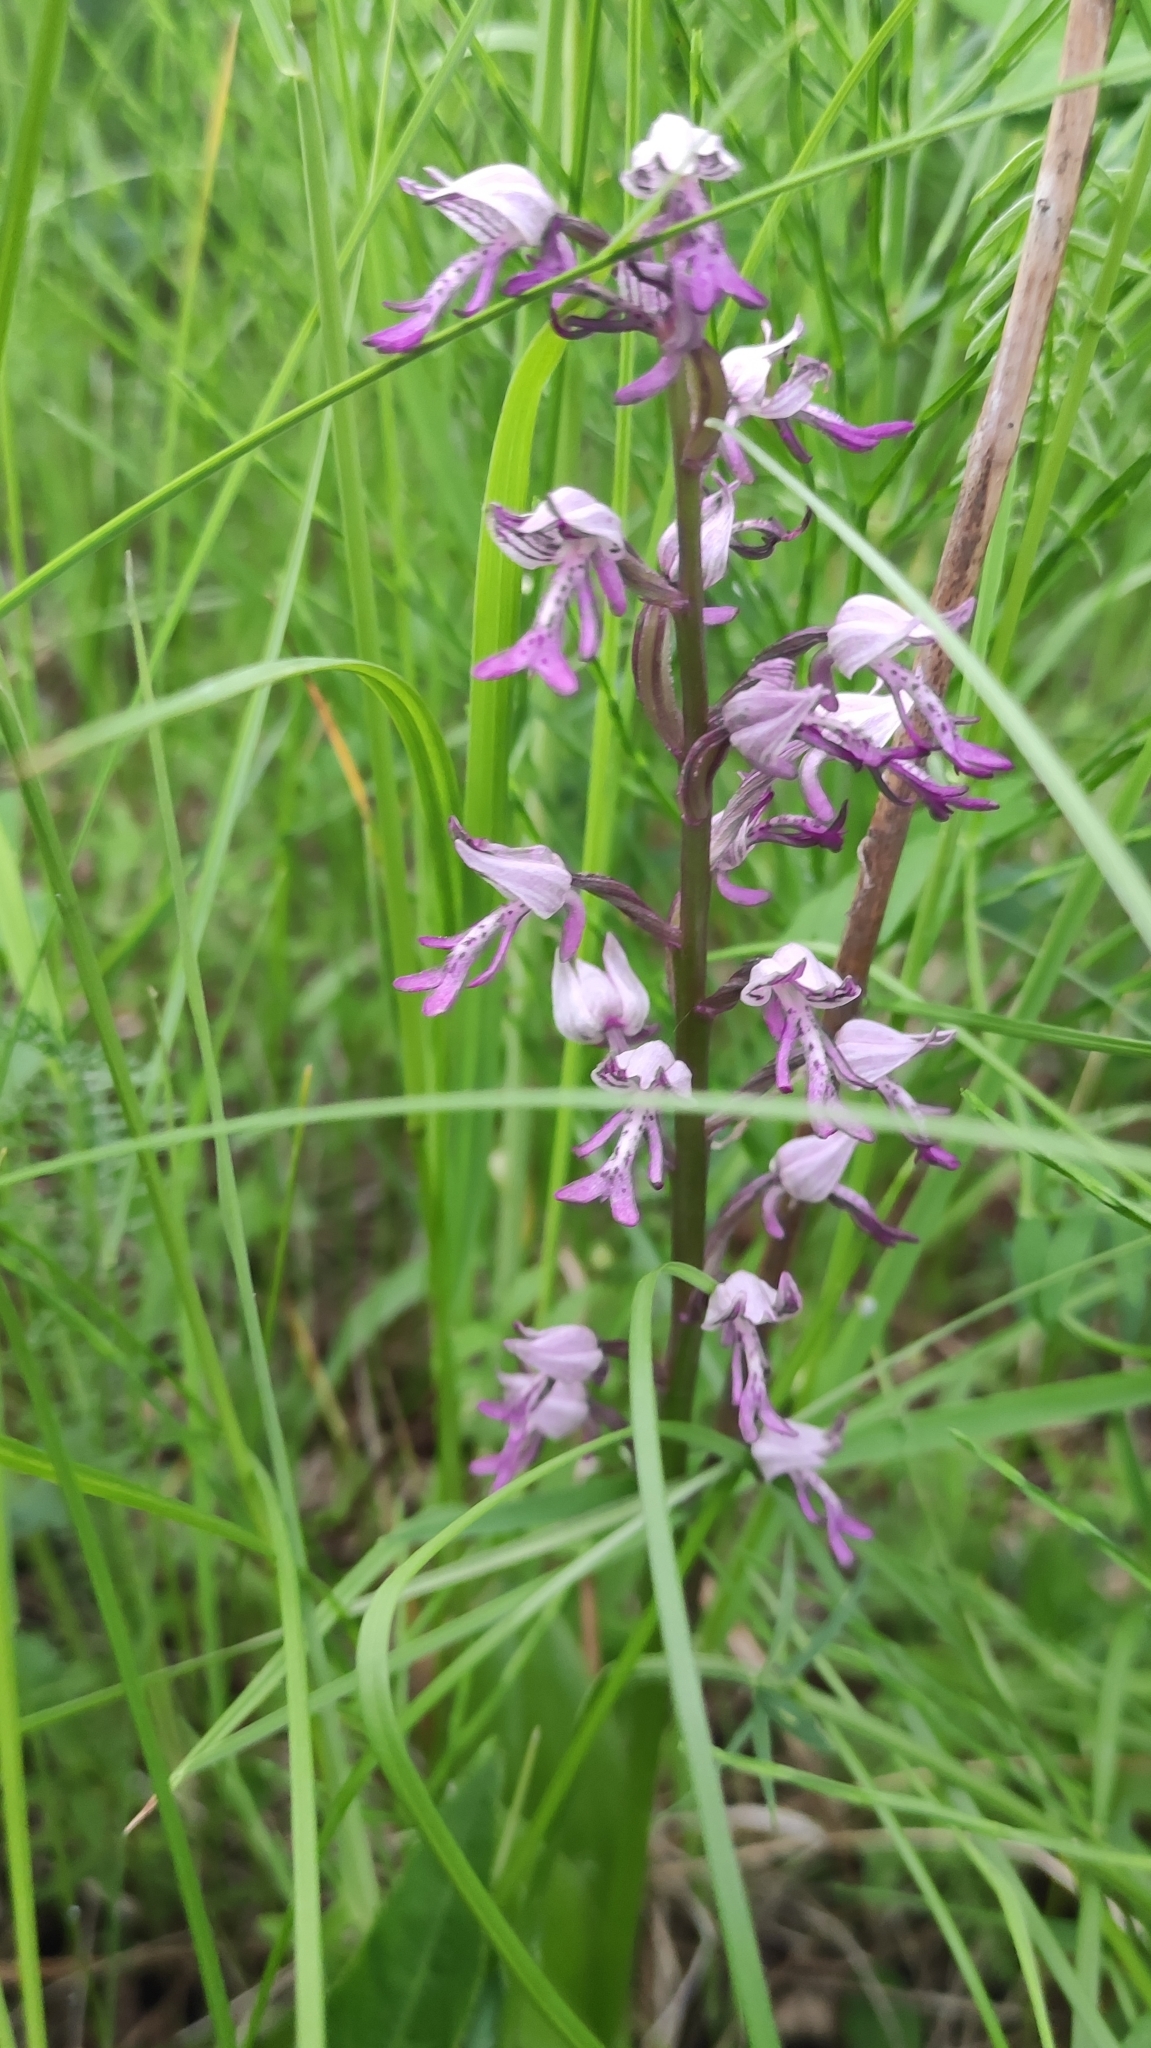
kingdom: Plantae
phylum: Tracheophyta
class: Liliopsida
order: Asparagales
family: Orchidaceae
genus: Orchis
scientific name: Orchis militaris
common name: Military orchid
